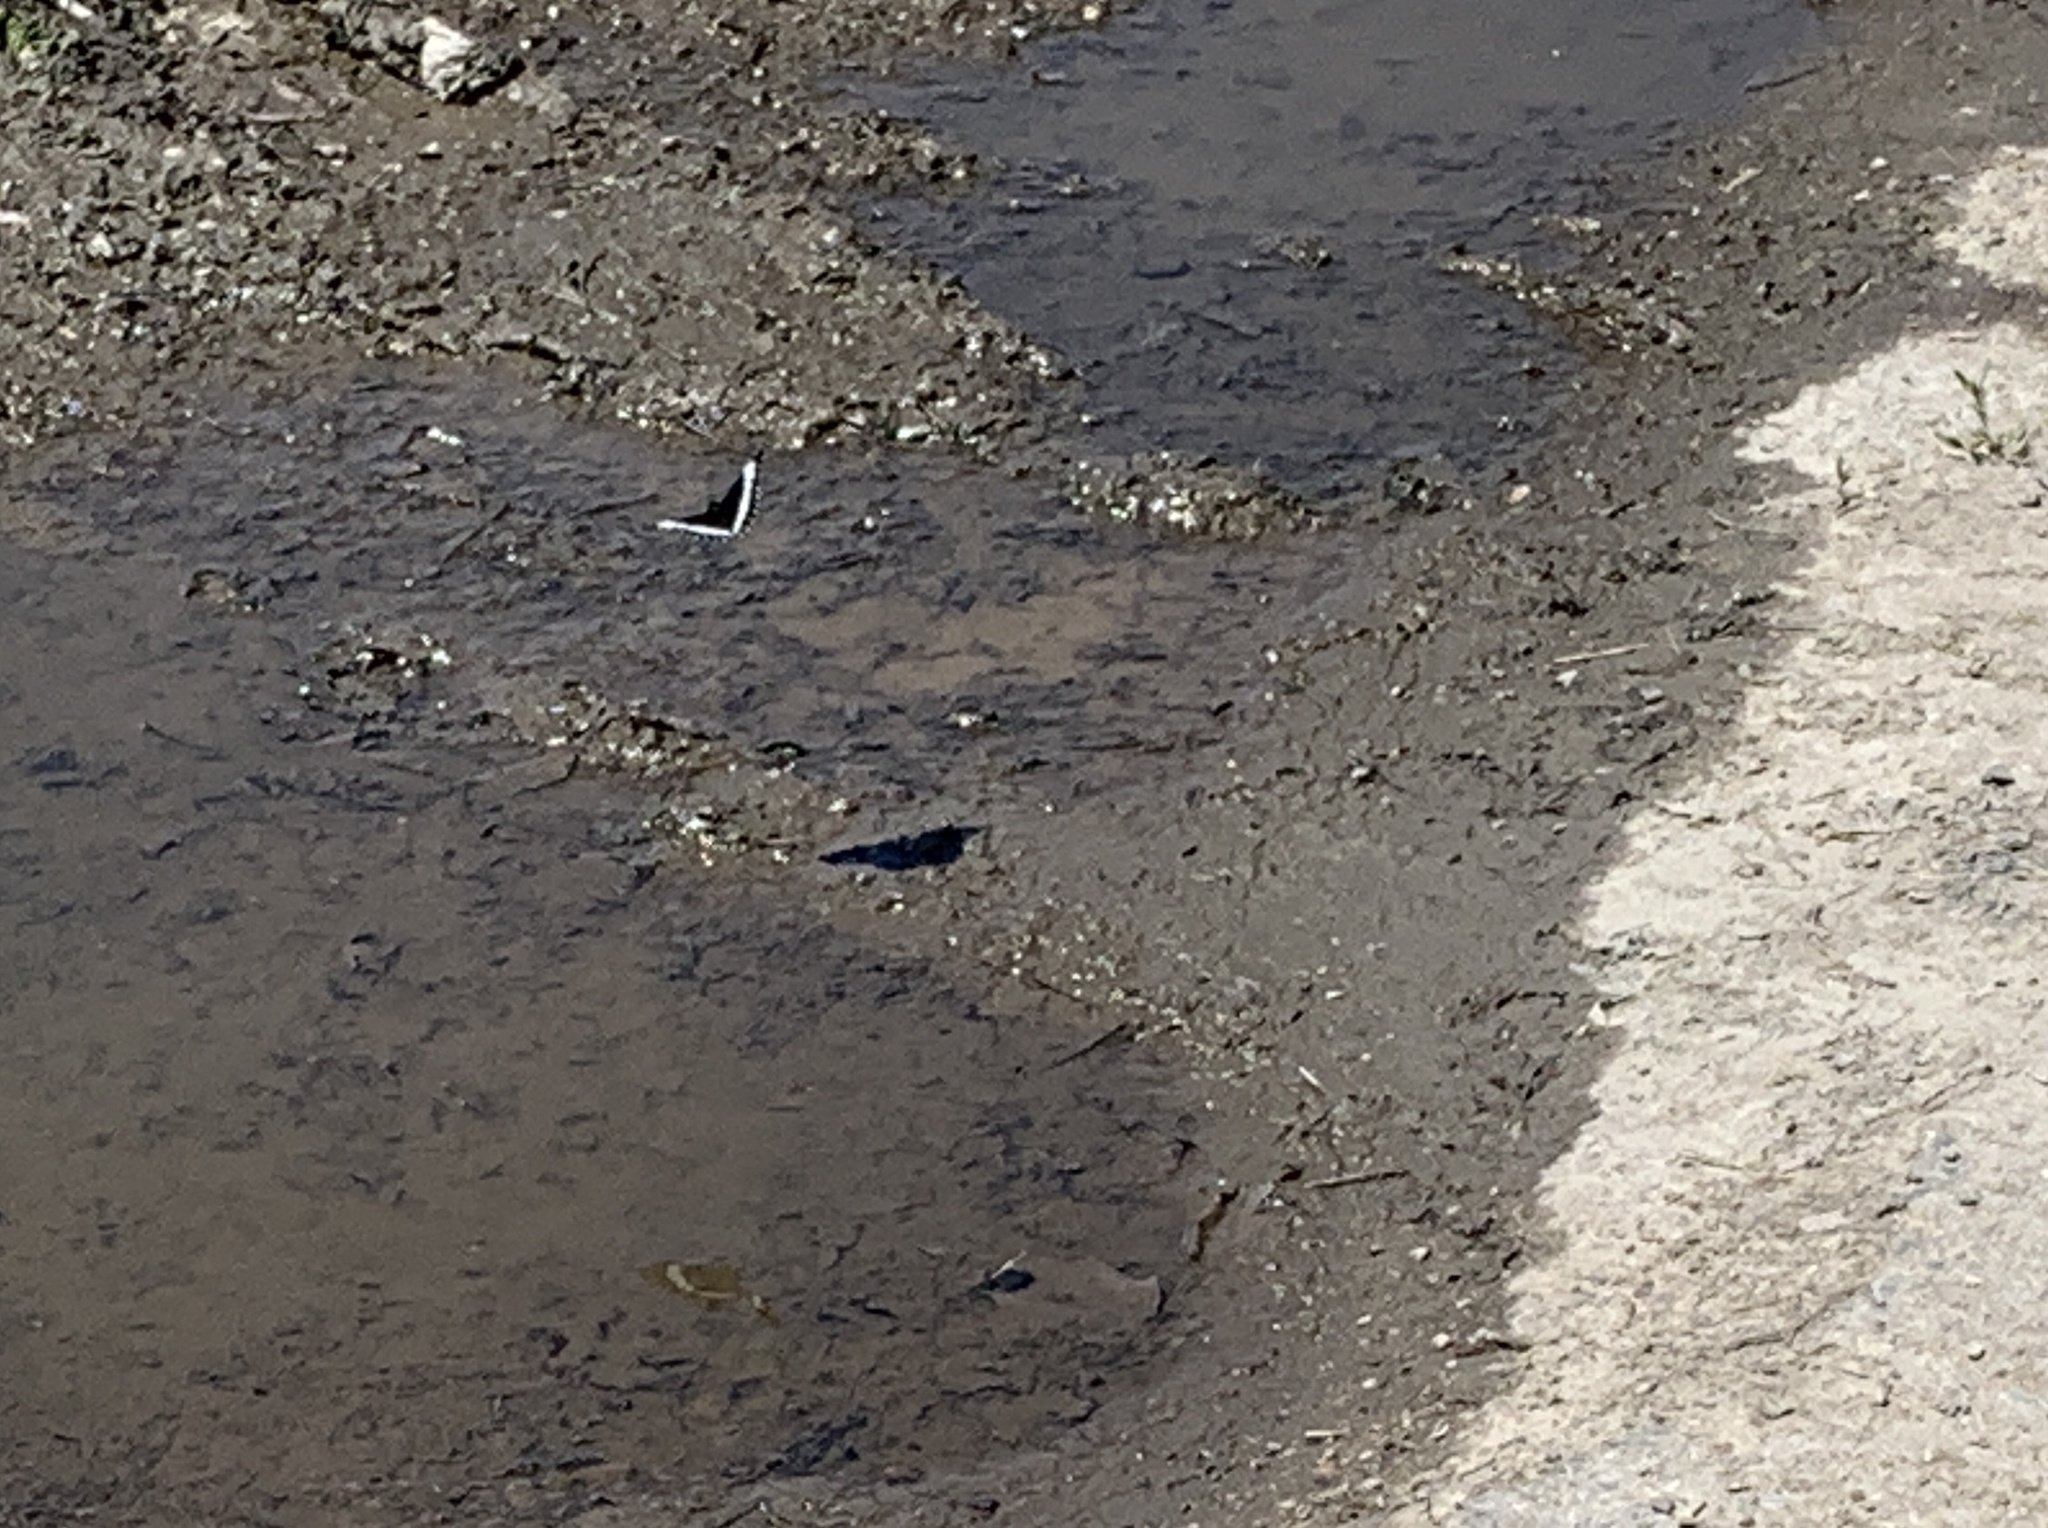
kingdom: Animalia
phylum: Arthropoda
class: Insecta
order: Lepidoptera
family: Nymphalidae
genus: Limenitis
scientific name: Limenitis arthemis
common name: Red-spotted admiral
